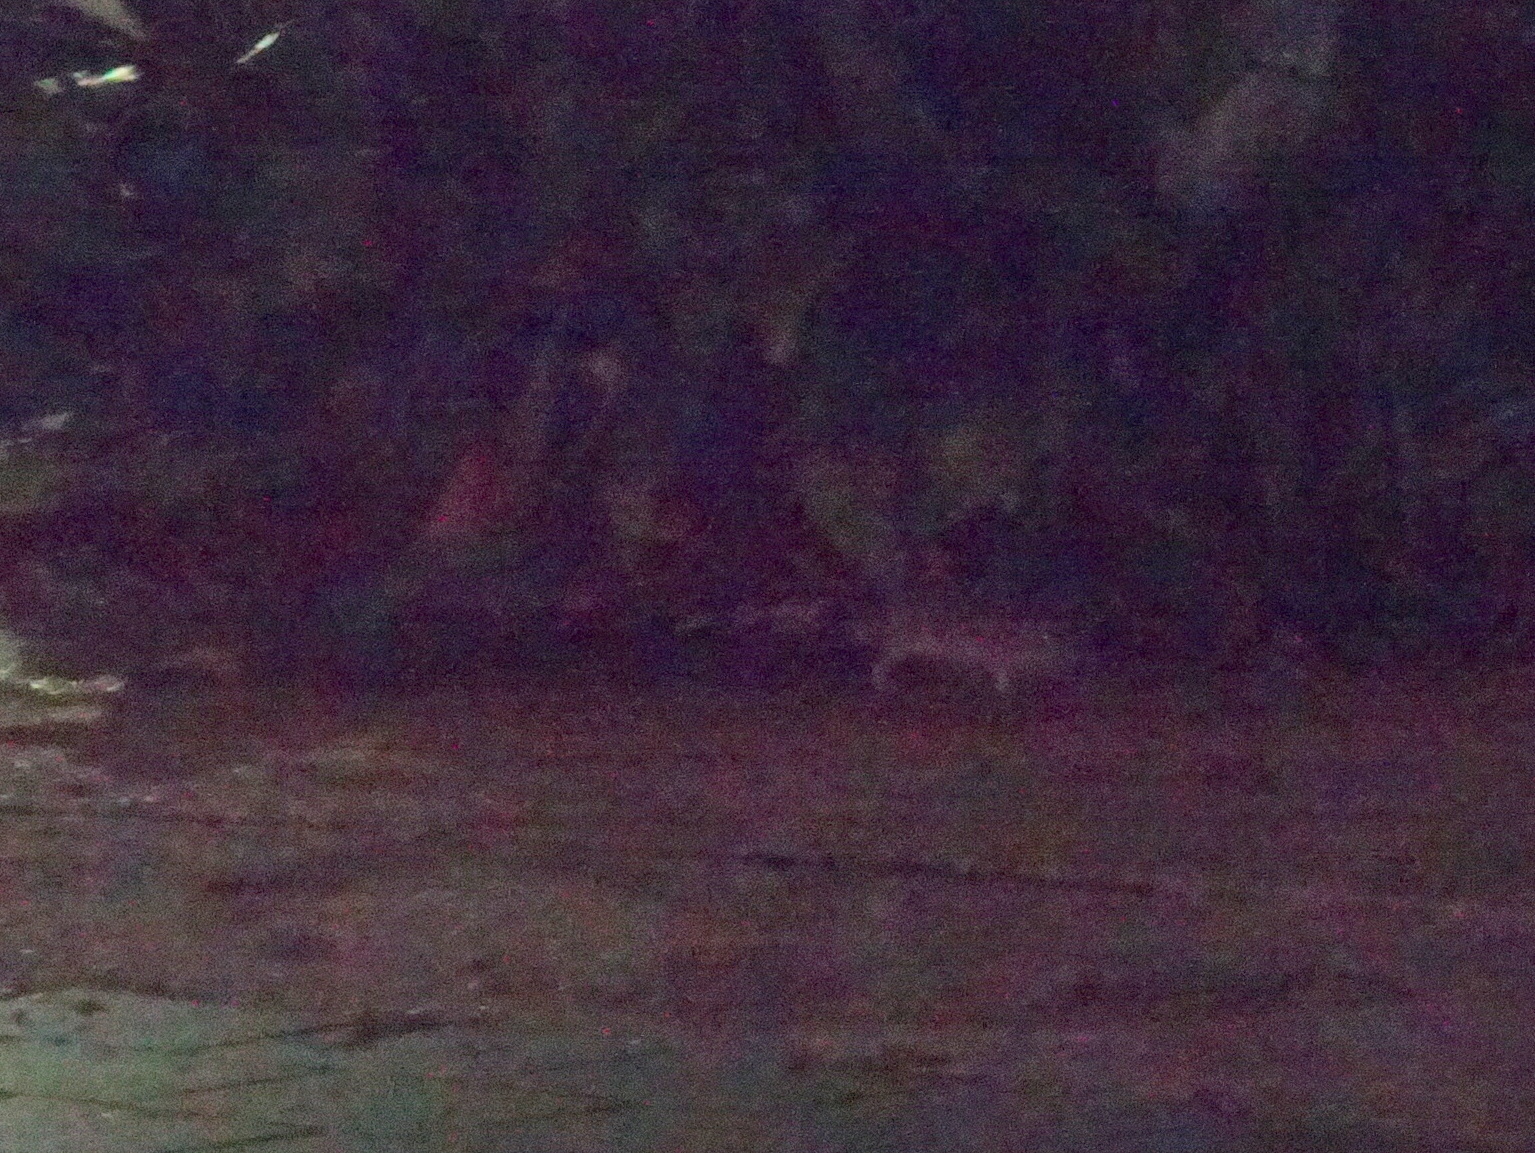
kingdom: Animalia
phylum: Chordata
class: Mammalia
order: Rodentia
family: Muridae
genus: Rattus
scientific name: Rattus rattus
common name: Black rat
